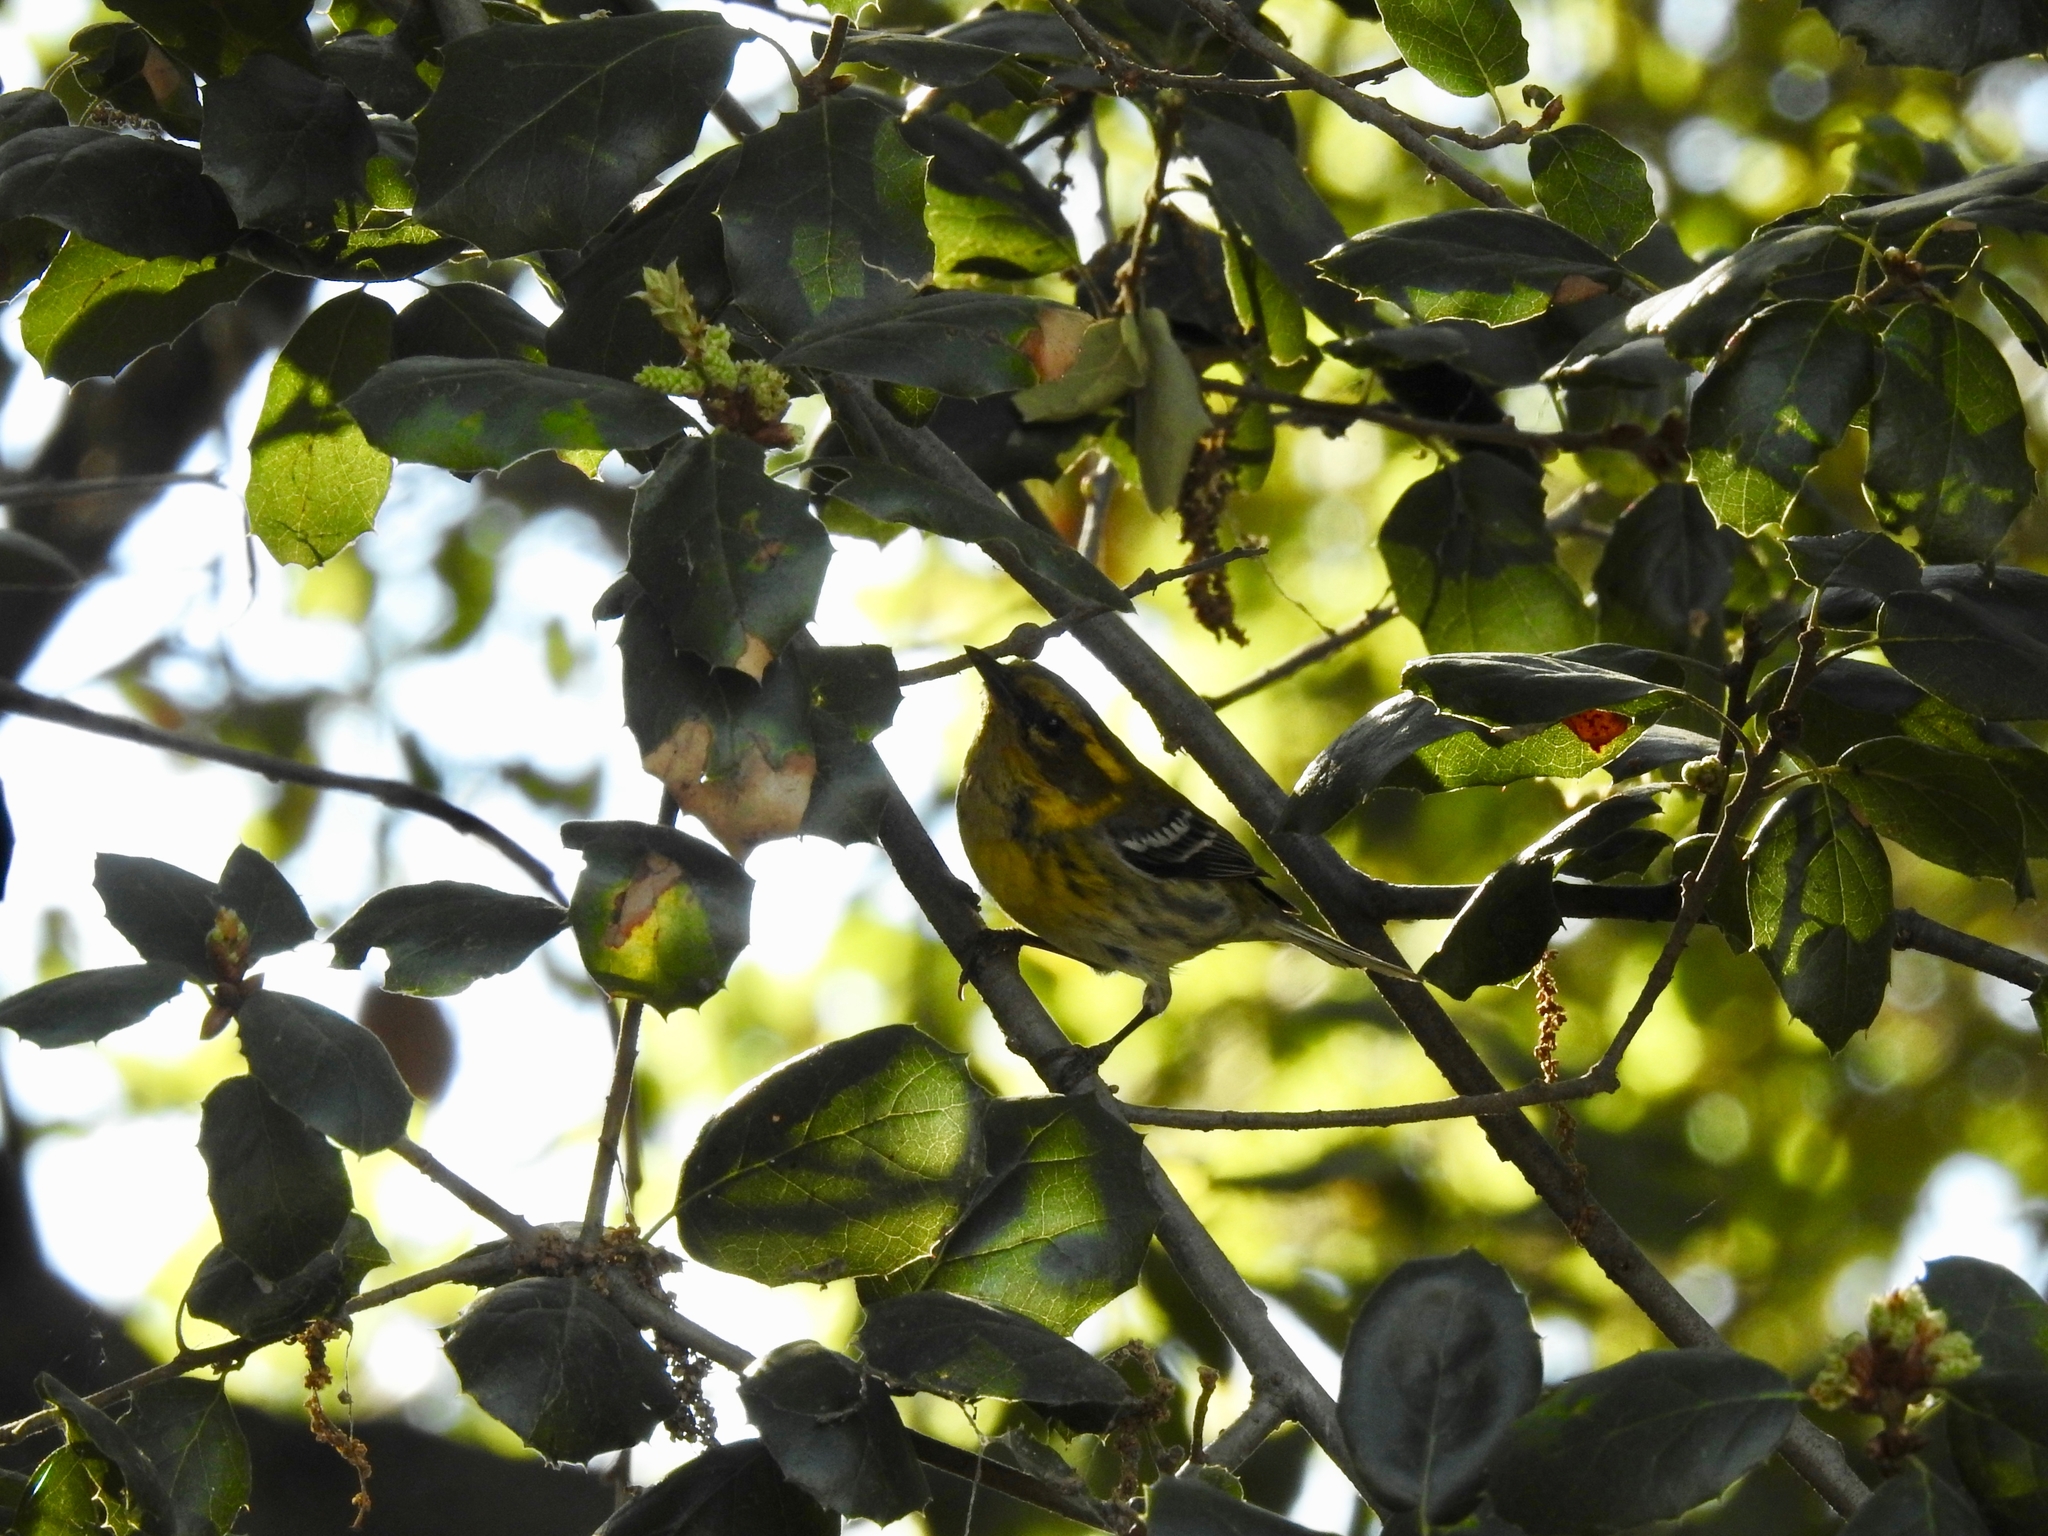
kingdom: Animalia
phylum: Chordata
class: Aves
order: Passeriformes
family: Parulidae
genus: Setophaga
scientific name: Setophaga townsendi
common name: Townsend's warbler
